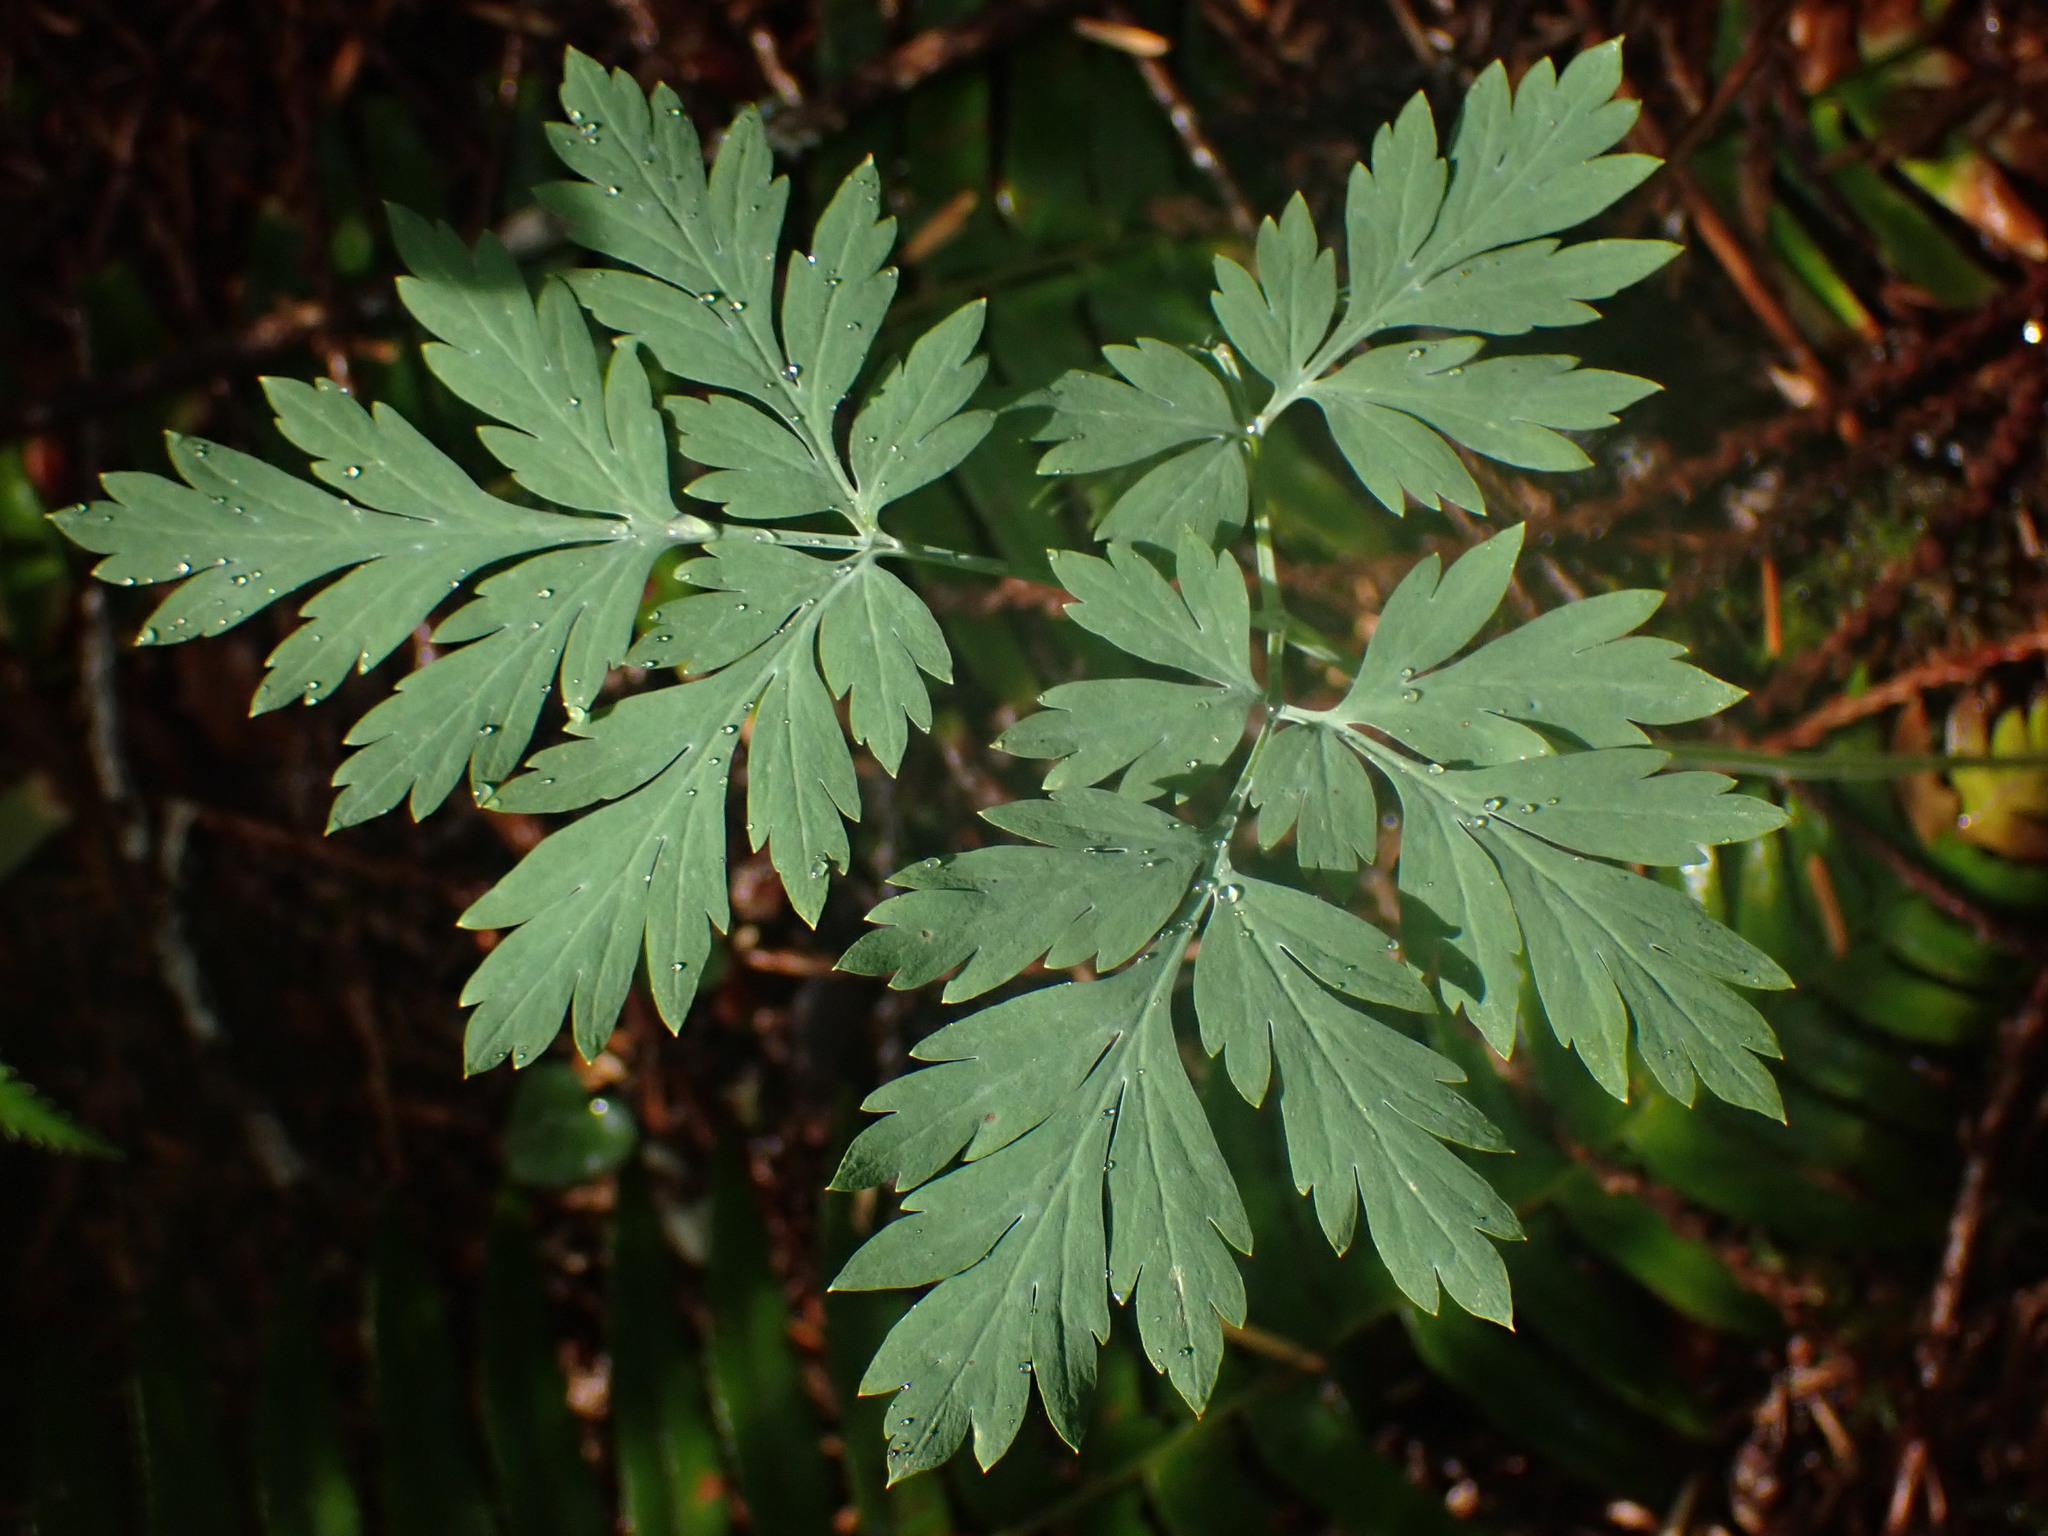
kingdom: Plantae
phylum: Tracheophyta
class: Magnoliopsida
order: Ranunculales
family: Papaveraceae
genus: Dicentra
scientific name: Dicentra formosa
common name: Bleeding-heart
